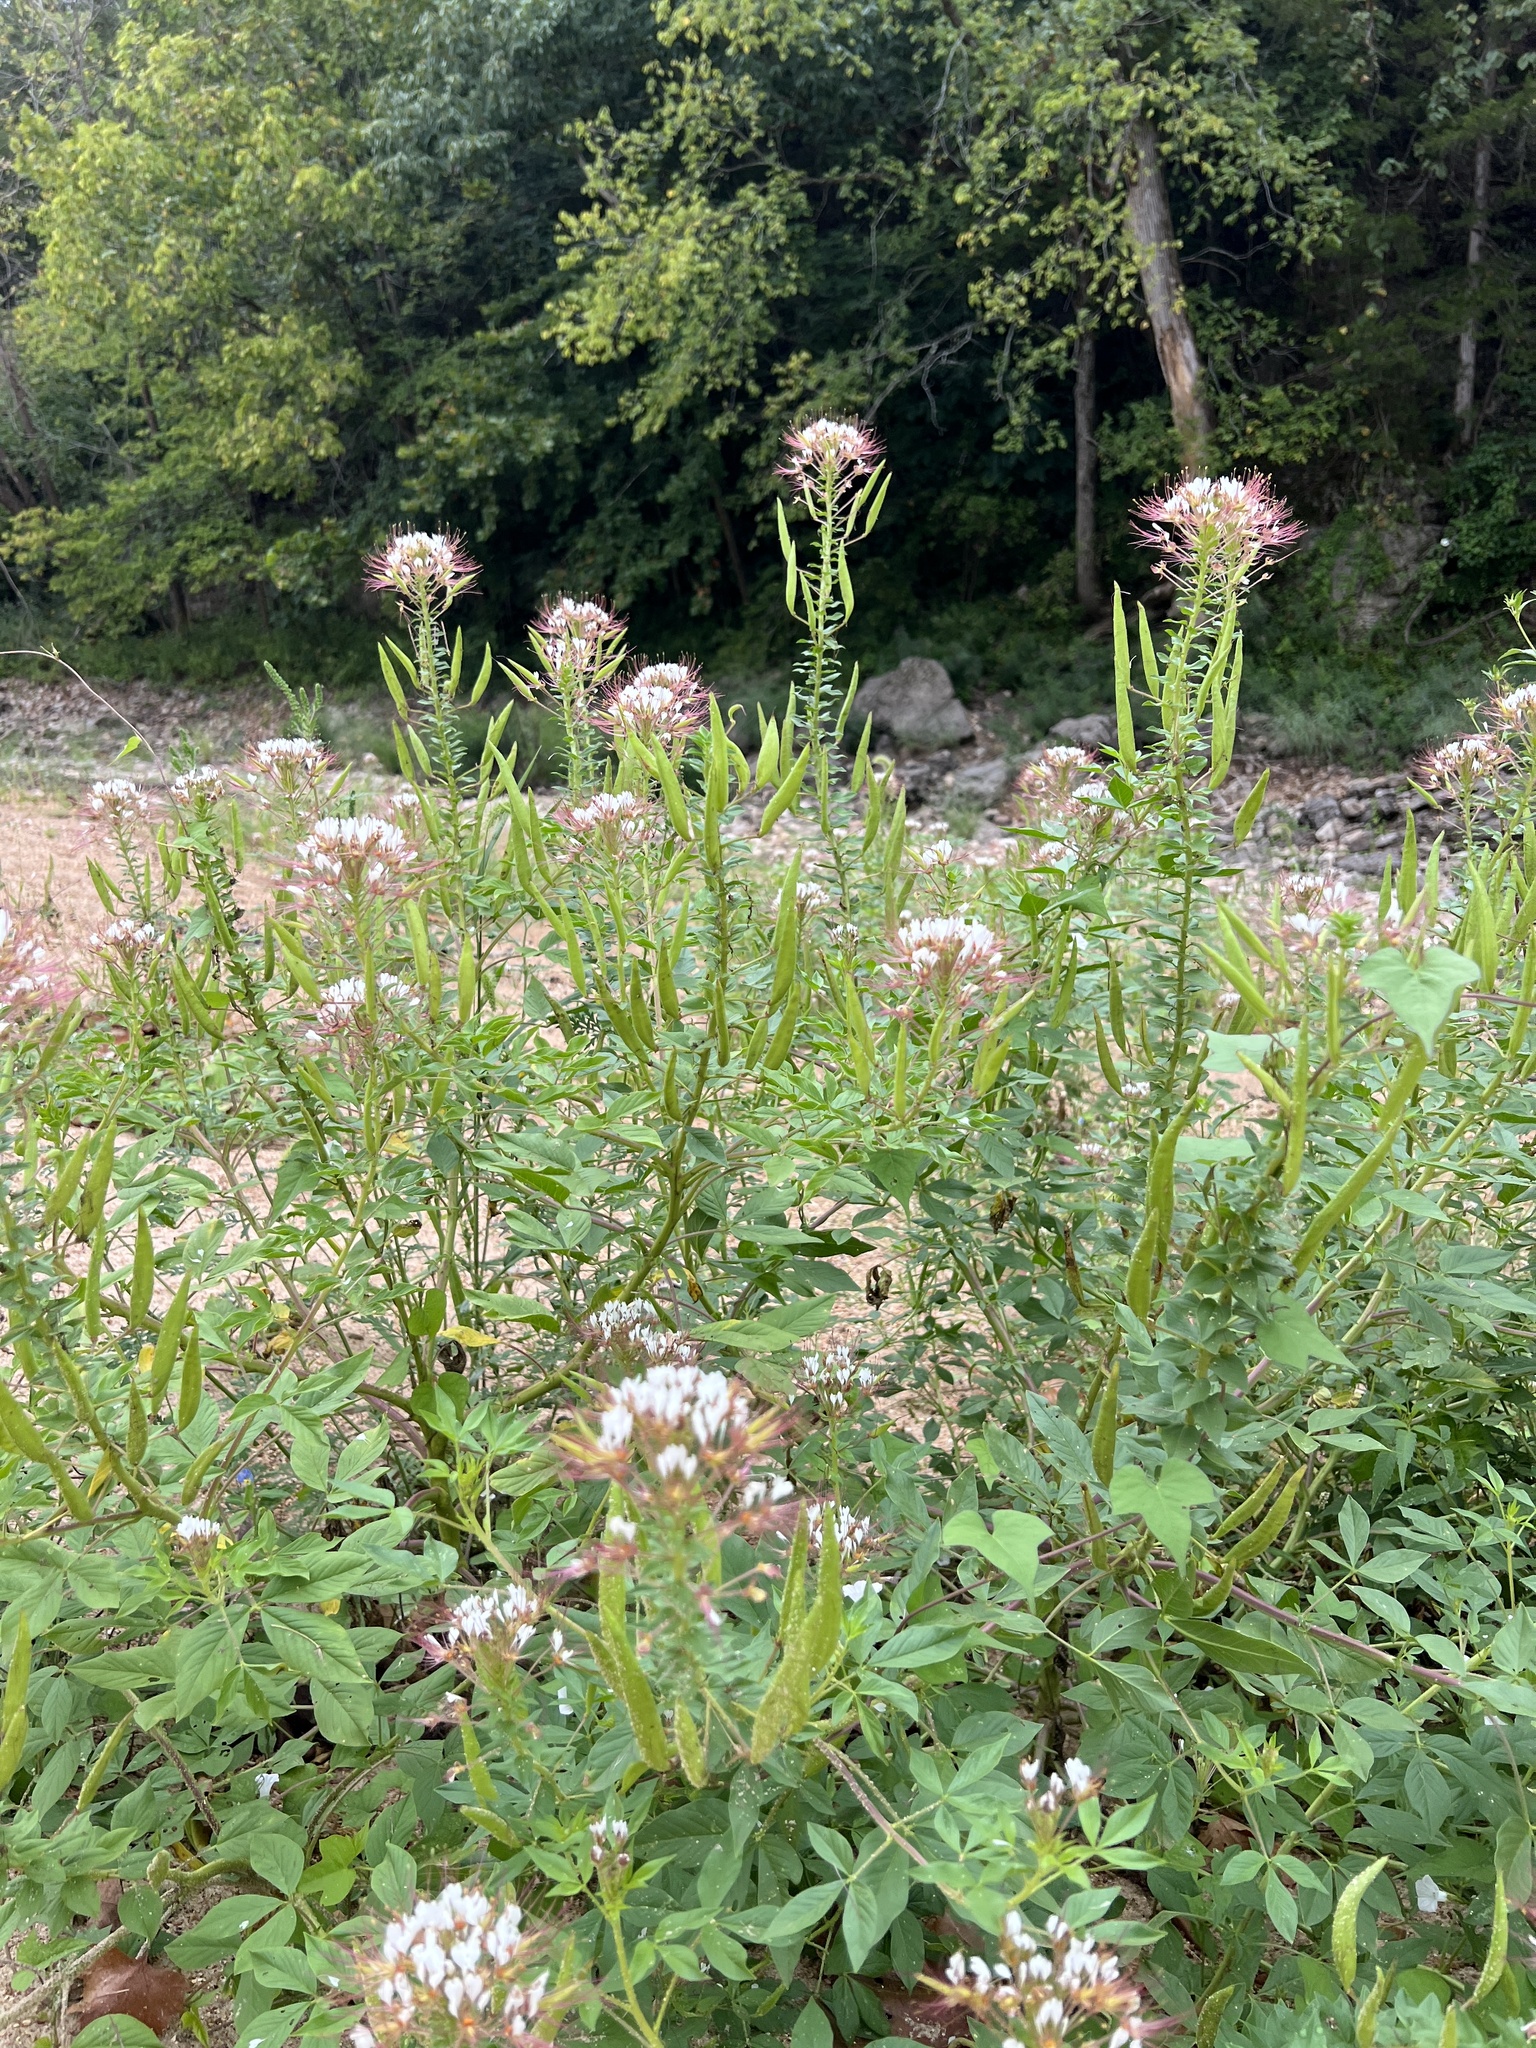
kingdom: Plantae
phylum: Tracheophyta
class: Magnoliopsida
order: Brassicales
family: Cleomaceae
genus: Polanisia
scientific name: Polanisia dodecandra
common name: Clammyweed
